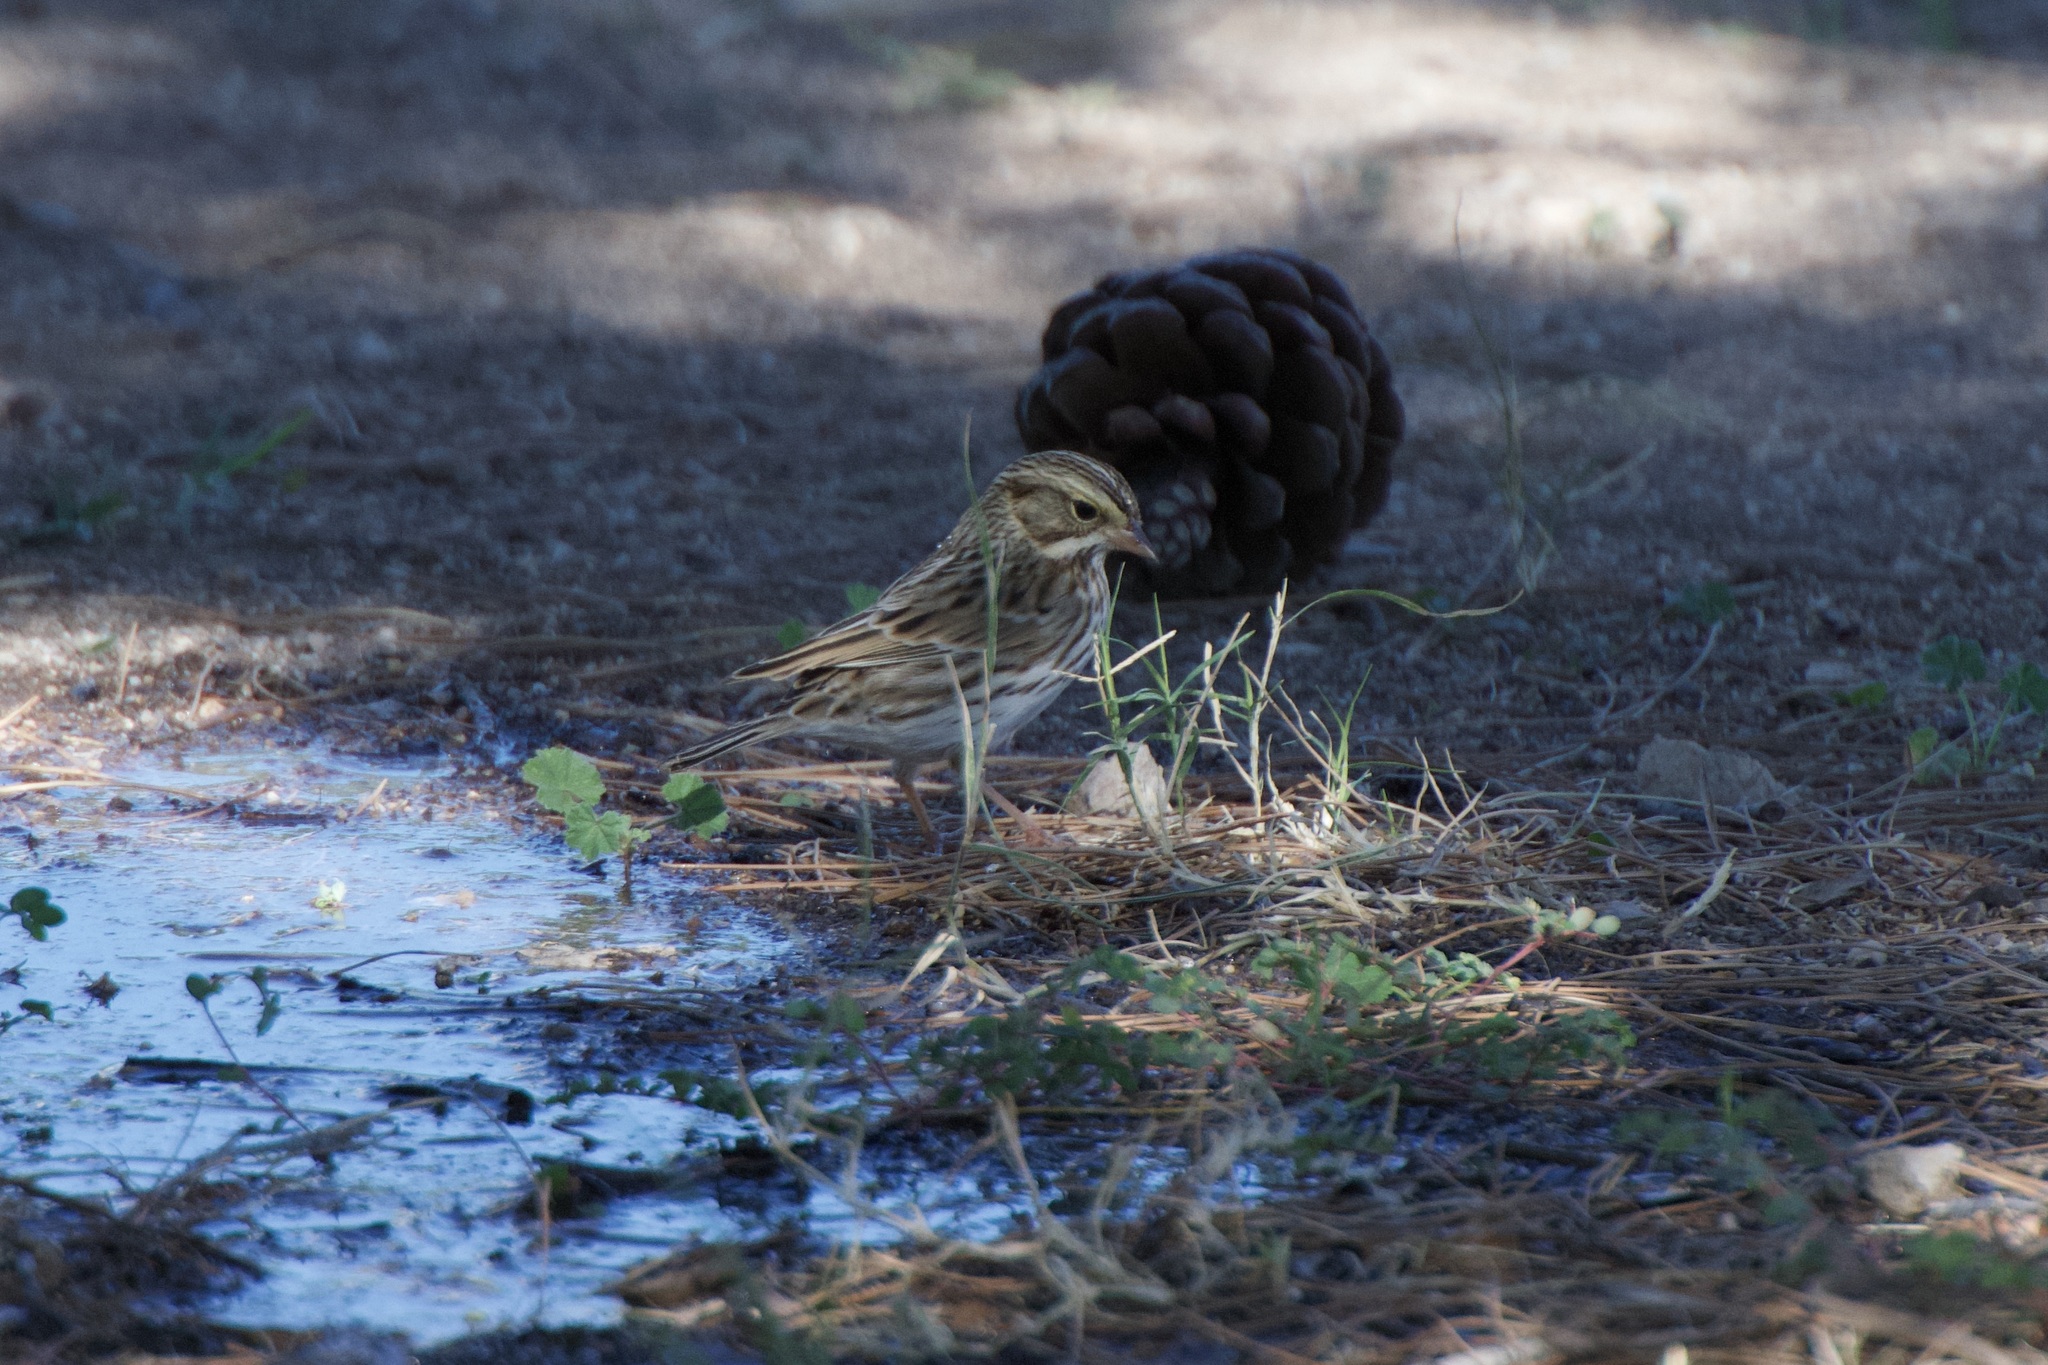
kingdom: Animalia
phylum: Chordata
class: Aves
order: Passeriformes
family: Passerellidae
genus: Passerculus
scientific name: Passerculus sandwichensis
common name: Savannah sparrow
